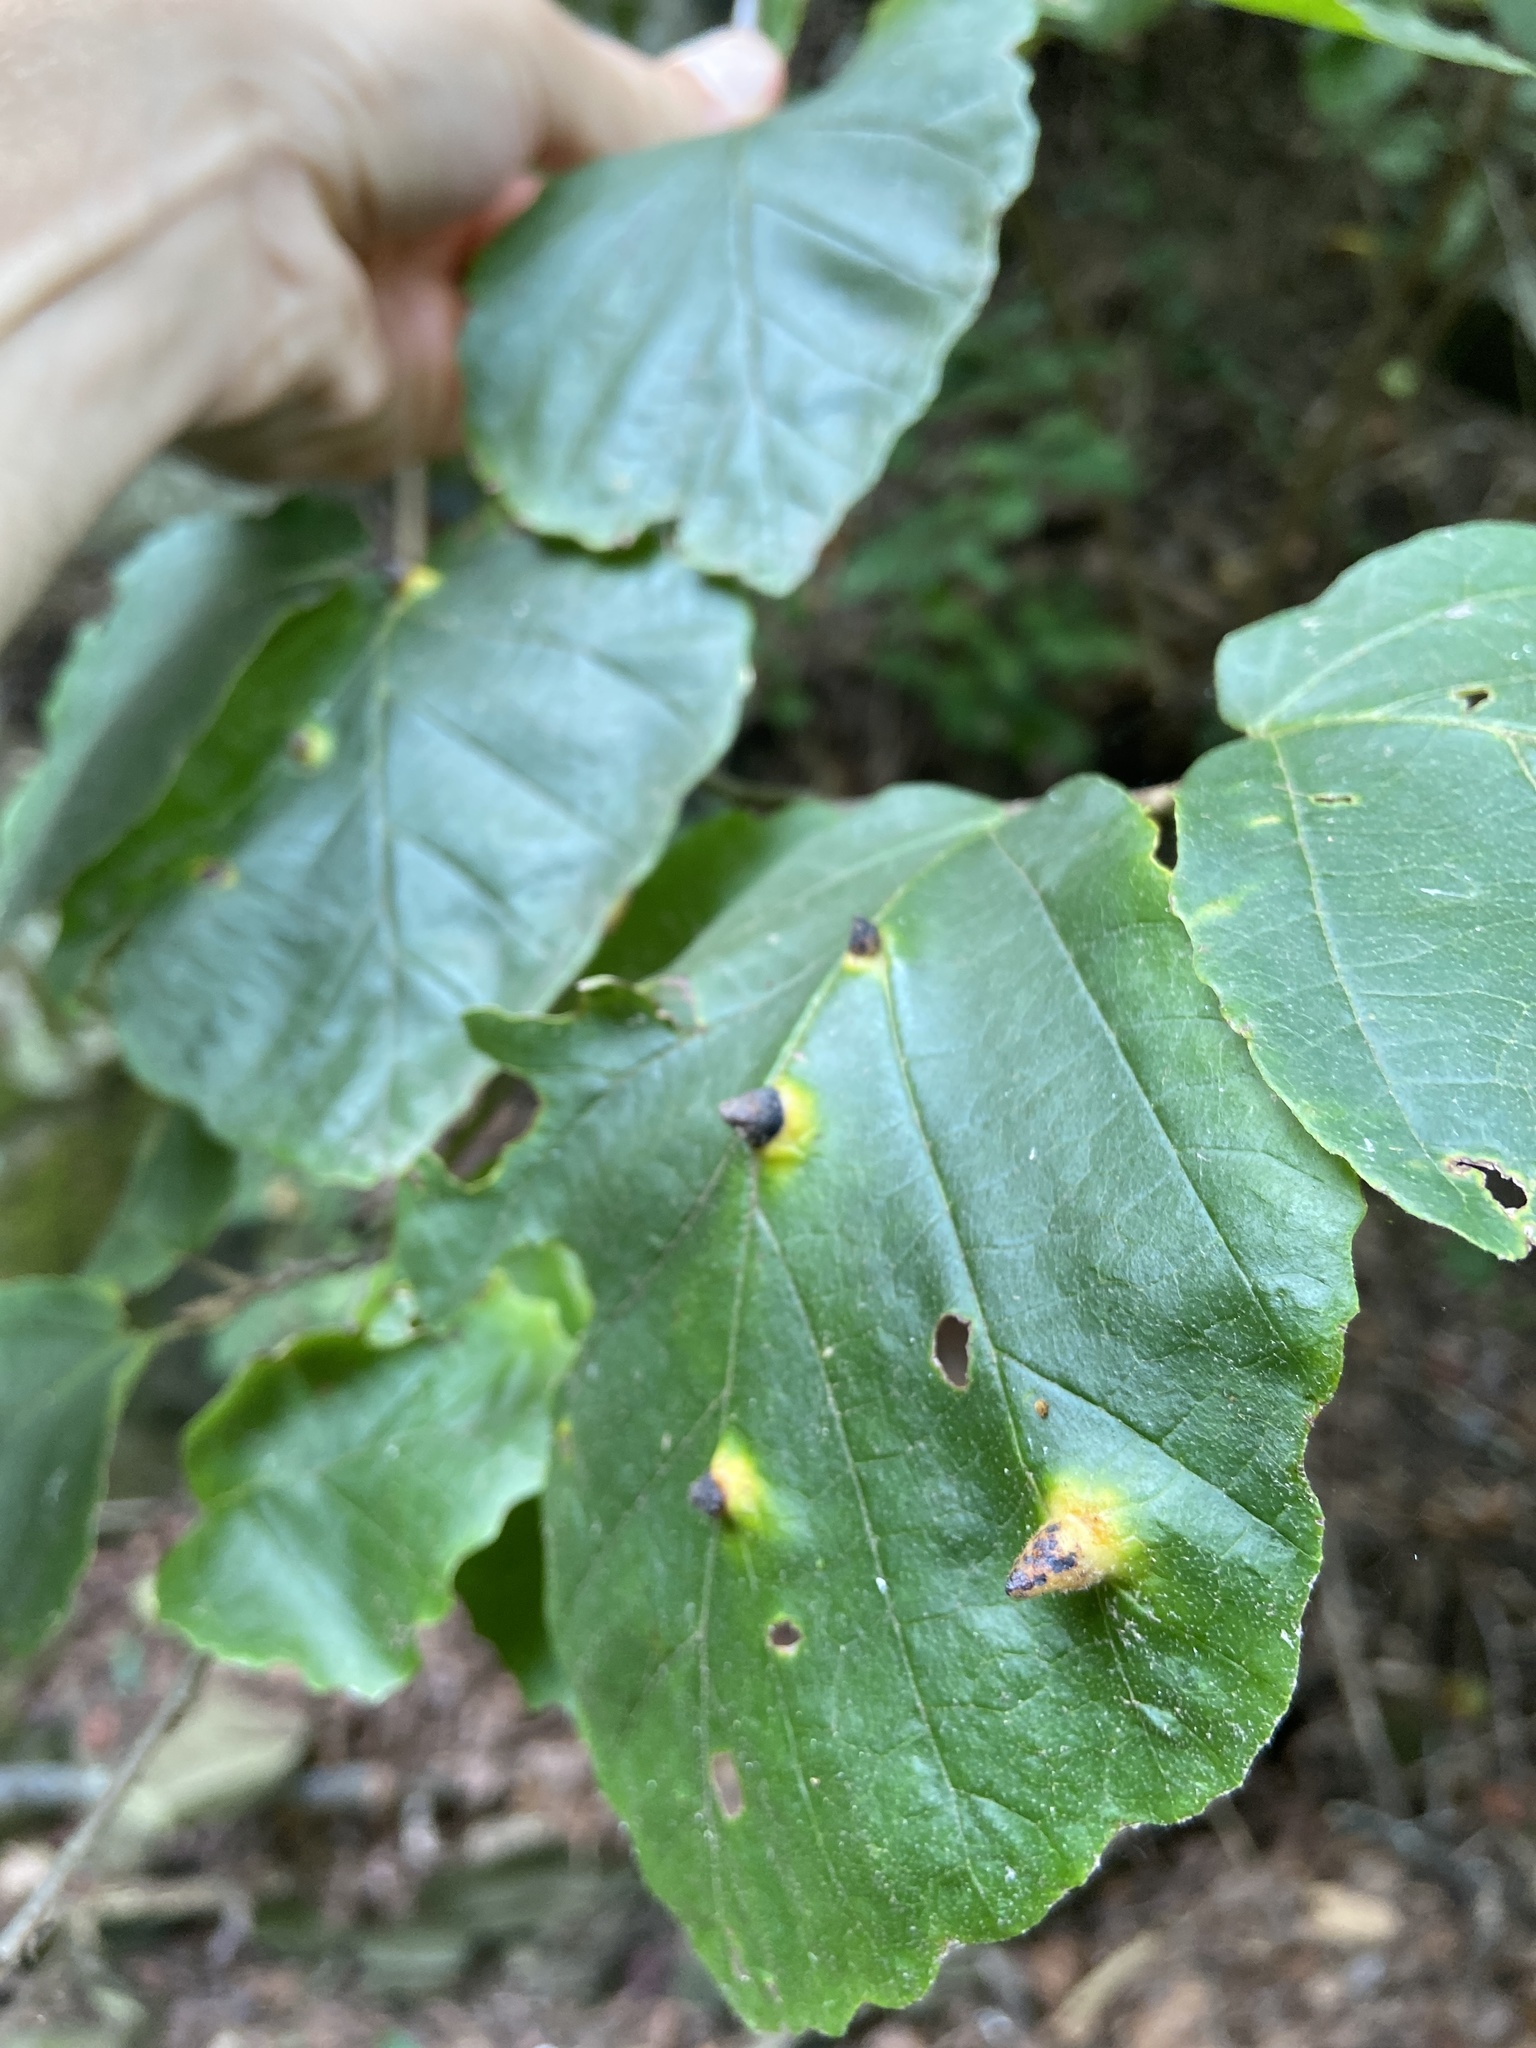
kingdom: Animalia
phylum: Arthropoda
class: Insecta
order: Hemiptera
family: Aphididae
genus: Hormaphis
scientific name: Hormaphis hamamelidis
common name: Witch-hazel cone gall aphid
